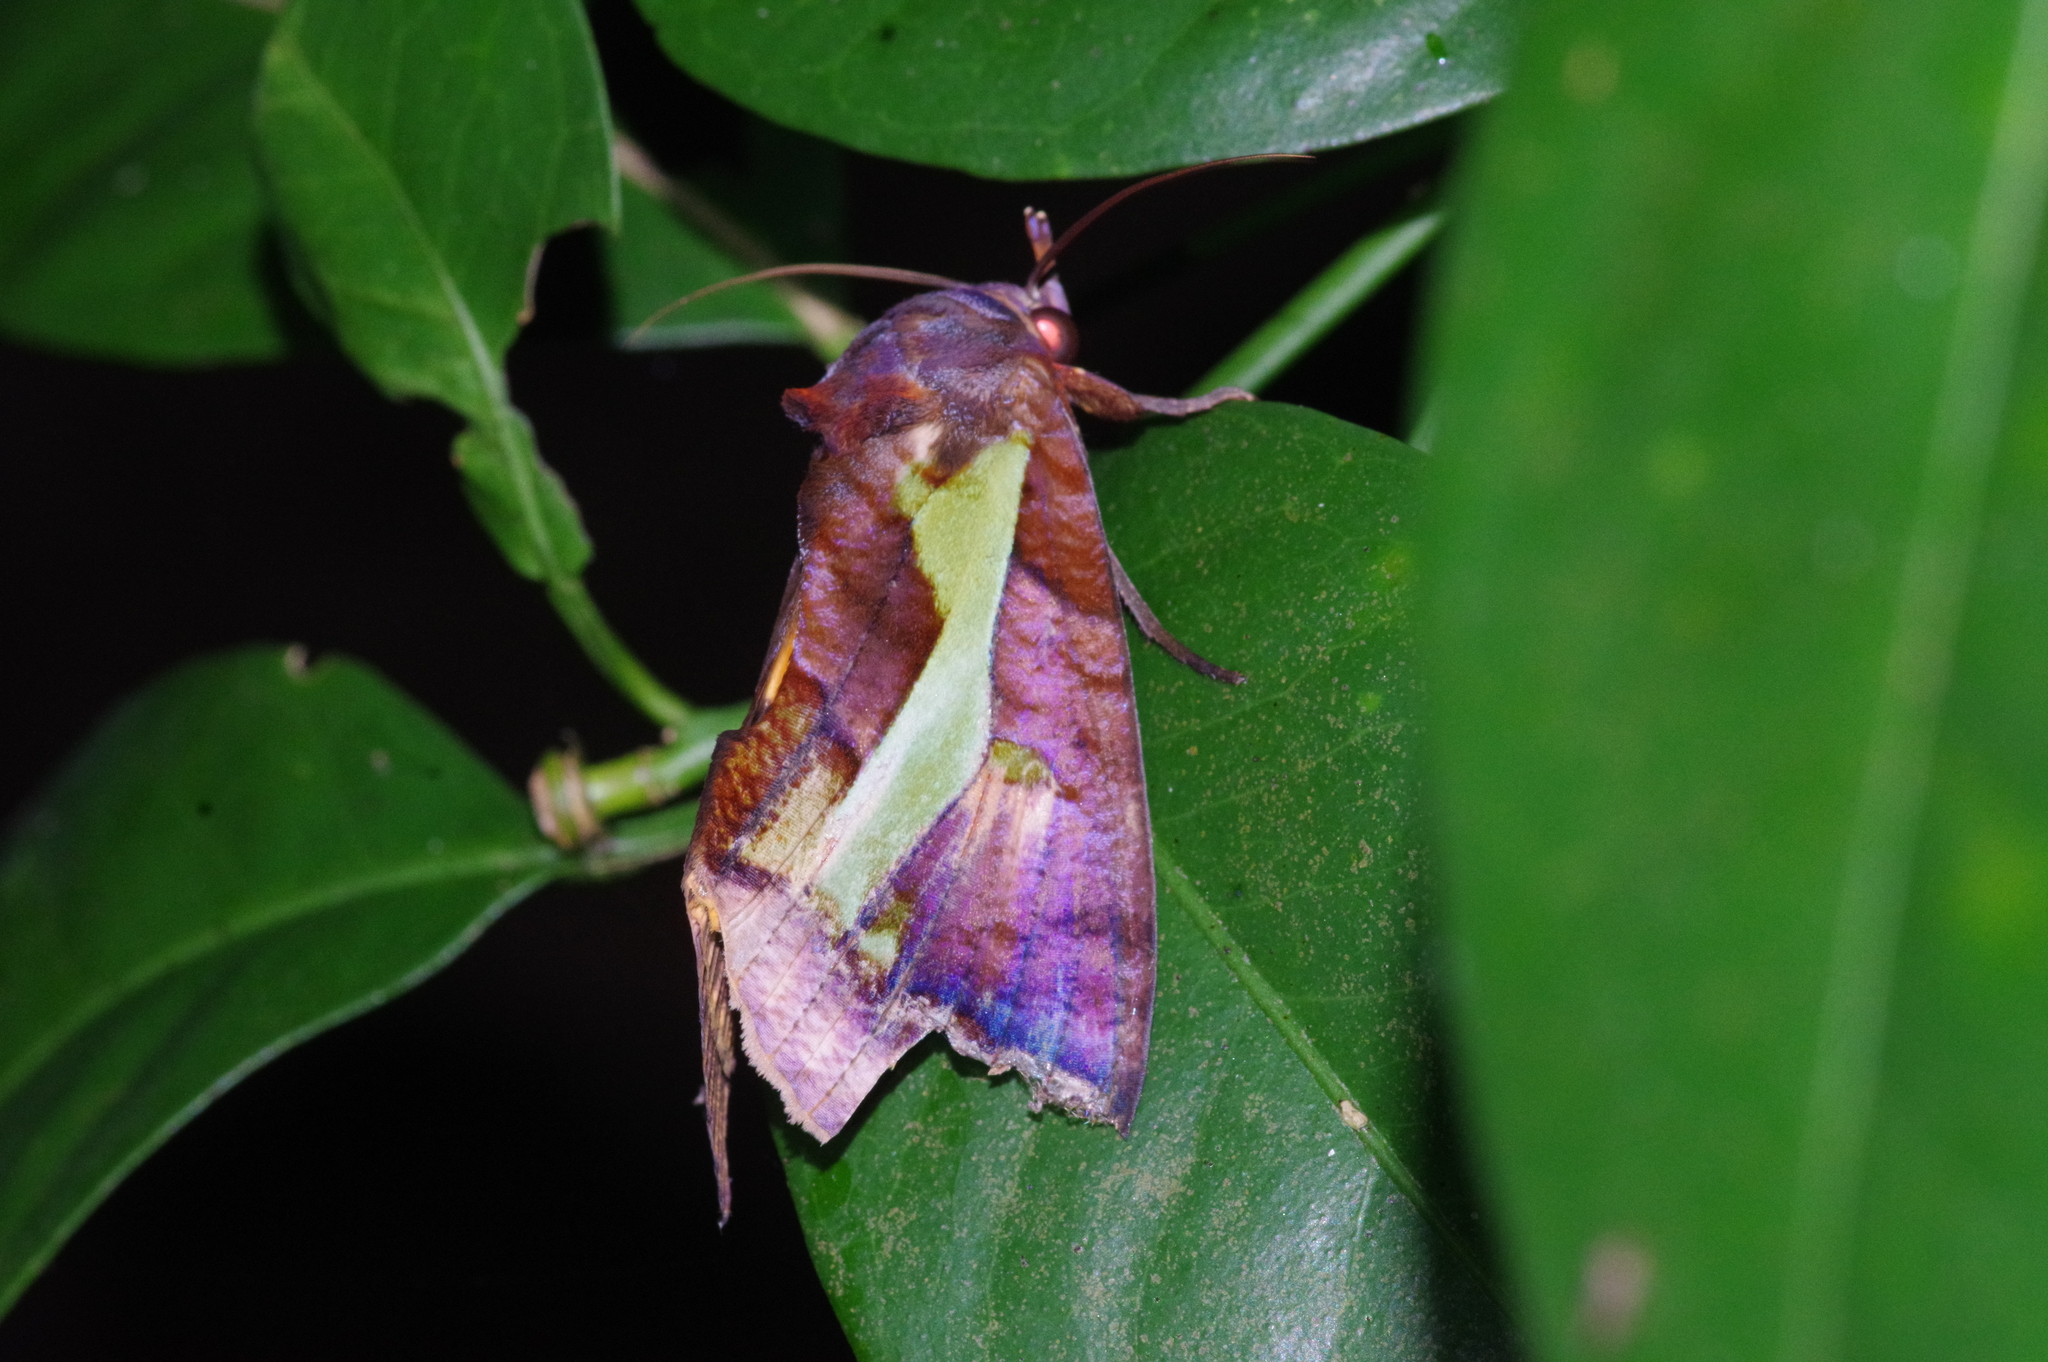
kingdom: Animalia
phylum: Arthropoda
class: Insecta
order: Lepidoptera
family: Erebidae
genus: Eudocima
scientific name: Eudocima homaena
